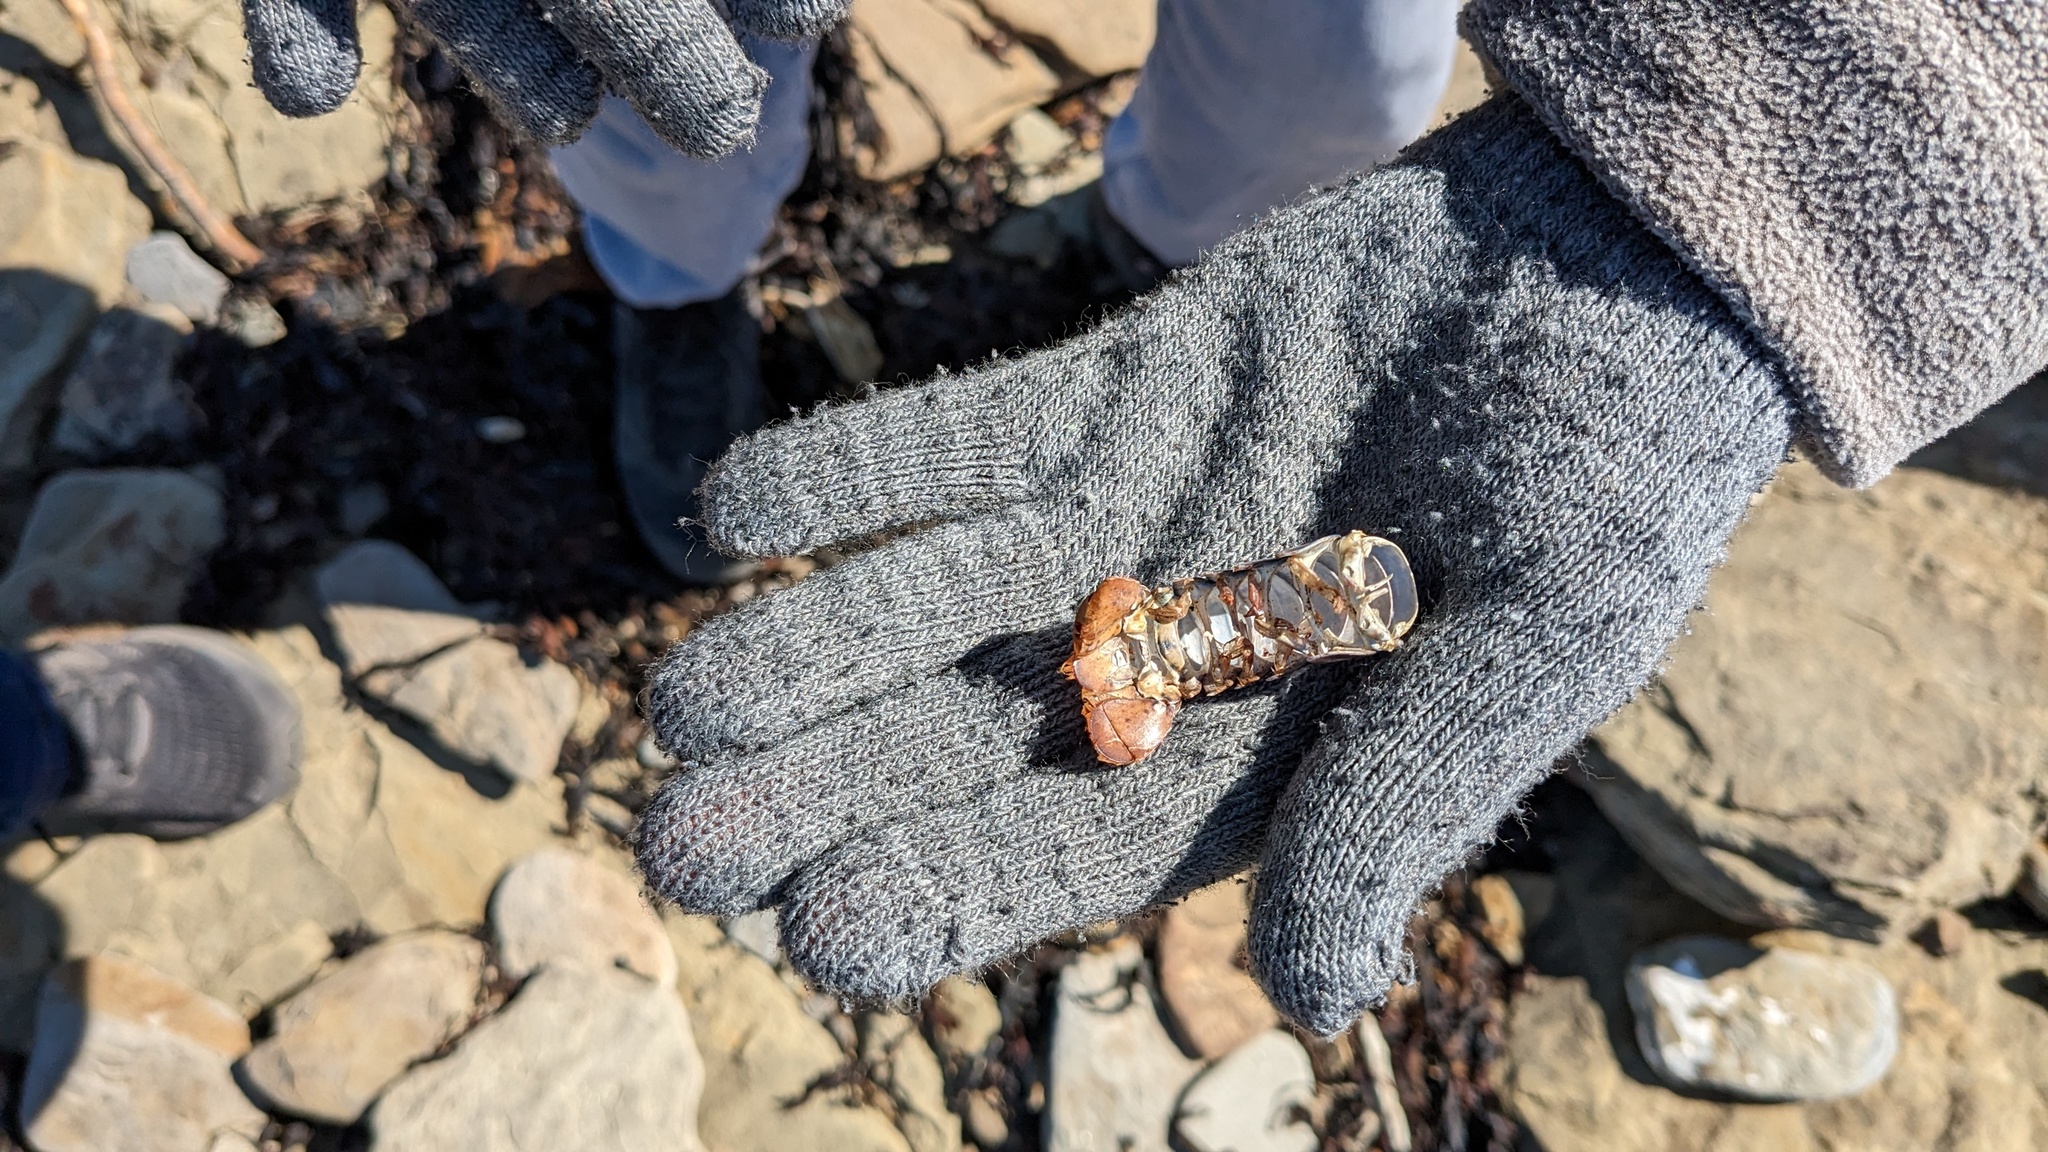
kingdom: Animalia
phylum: Arthropoda
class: Malacostraca
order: Decapoda
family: Nephropidae
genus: Homarus
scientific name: Homarus americanus
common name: American lobster
